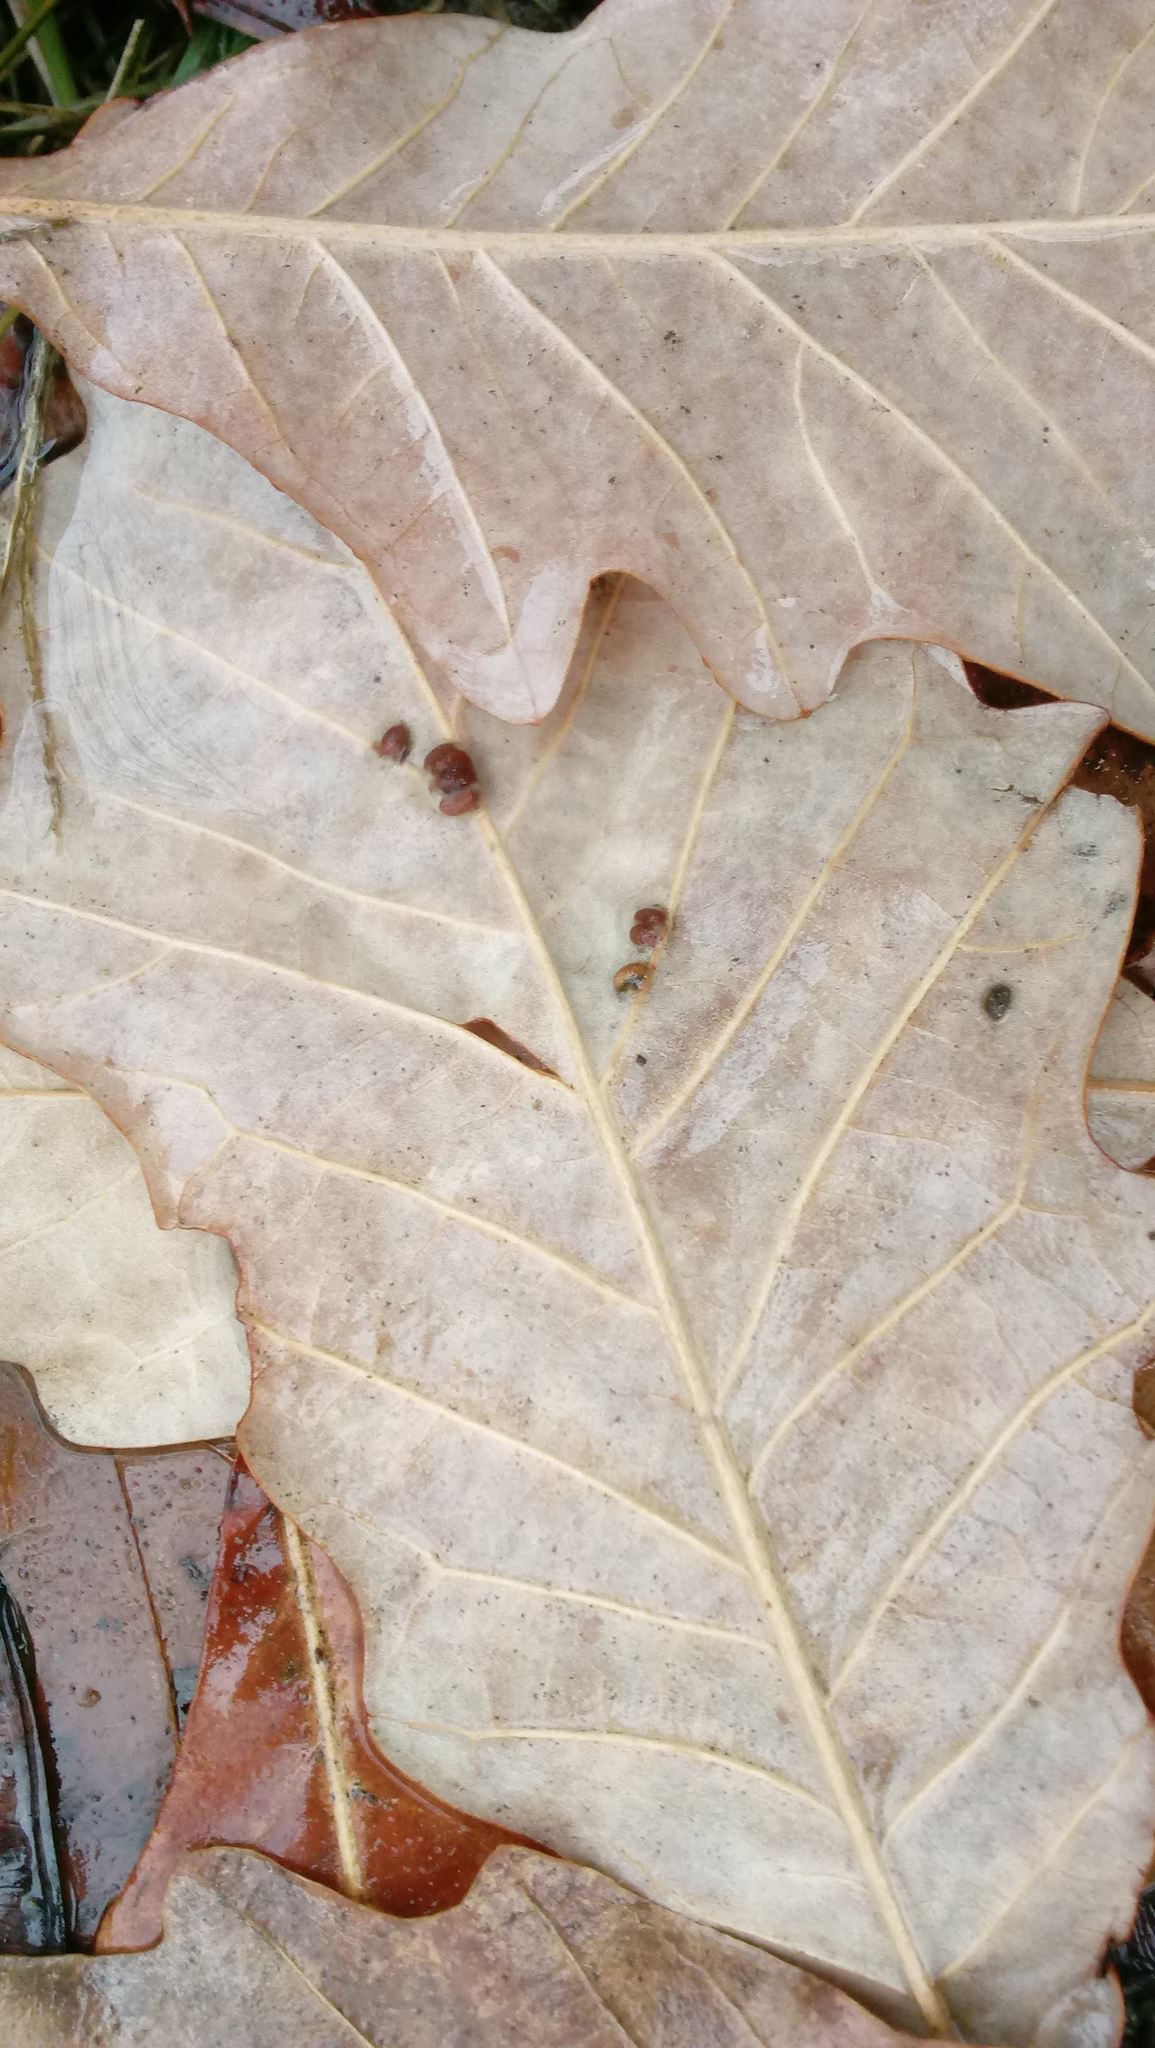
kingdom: Animalia
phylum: Arthropoda
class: Insecta
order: Hymenoptera
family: Cynipidae
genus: Andricus
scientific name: Andricus Druon ignotum
